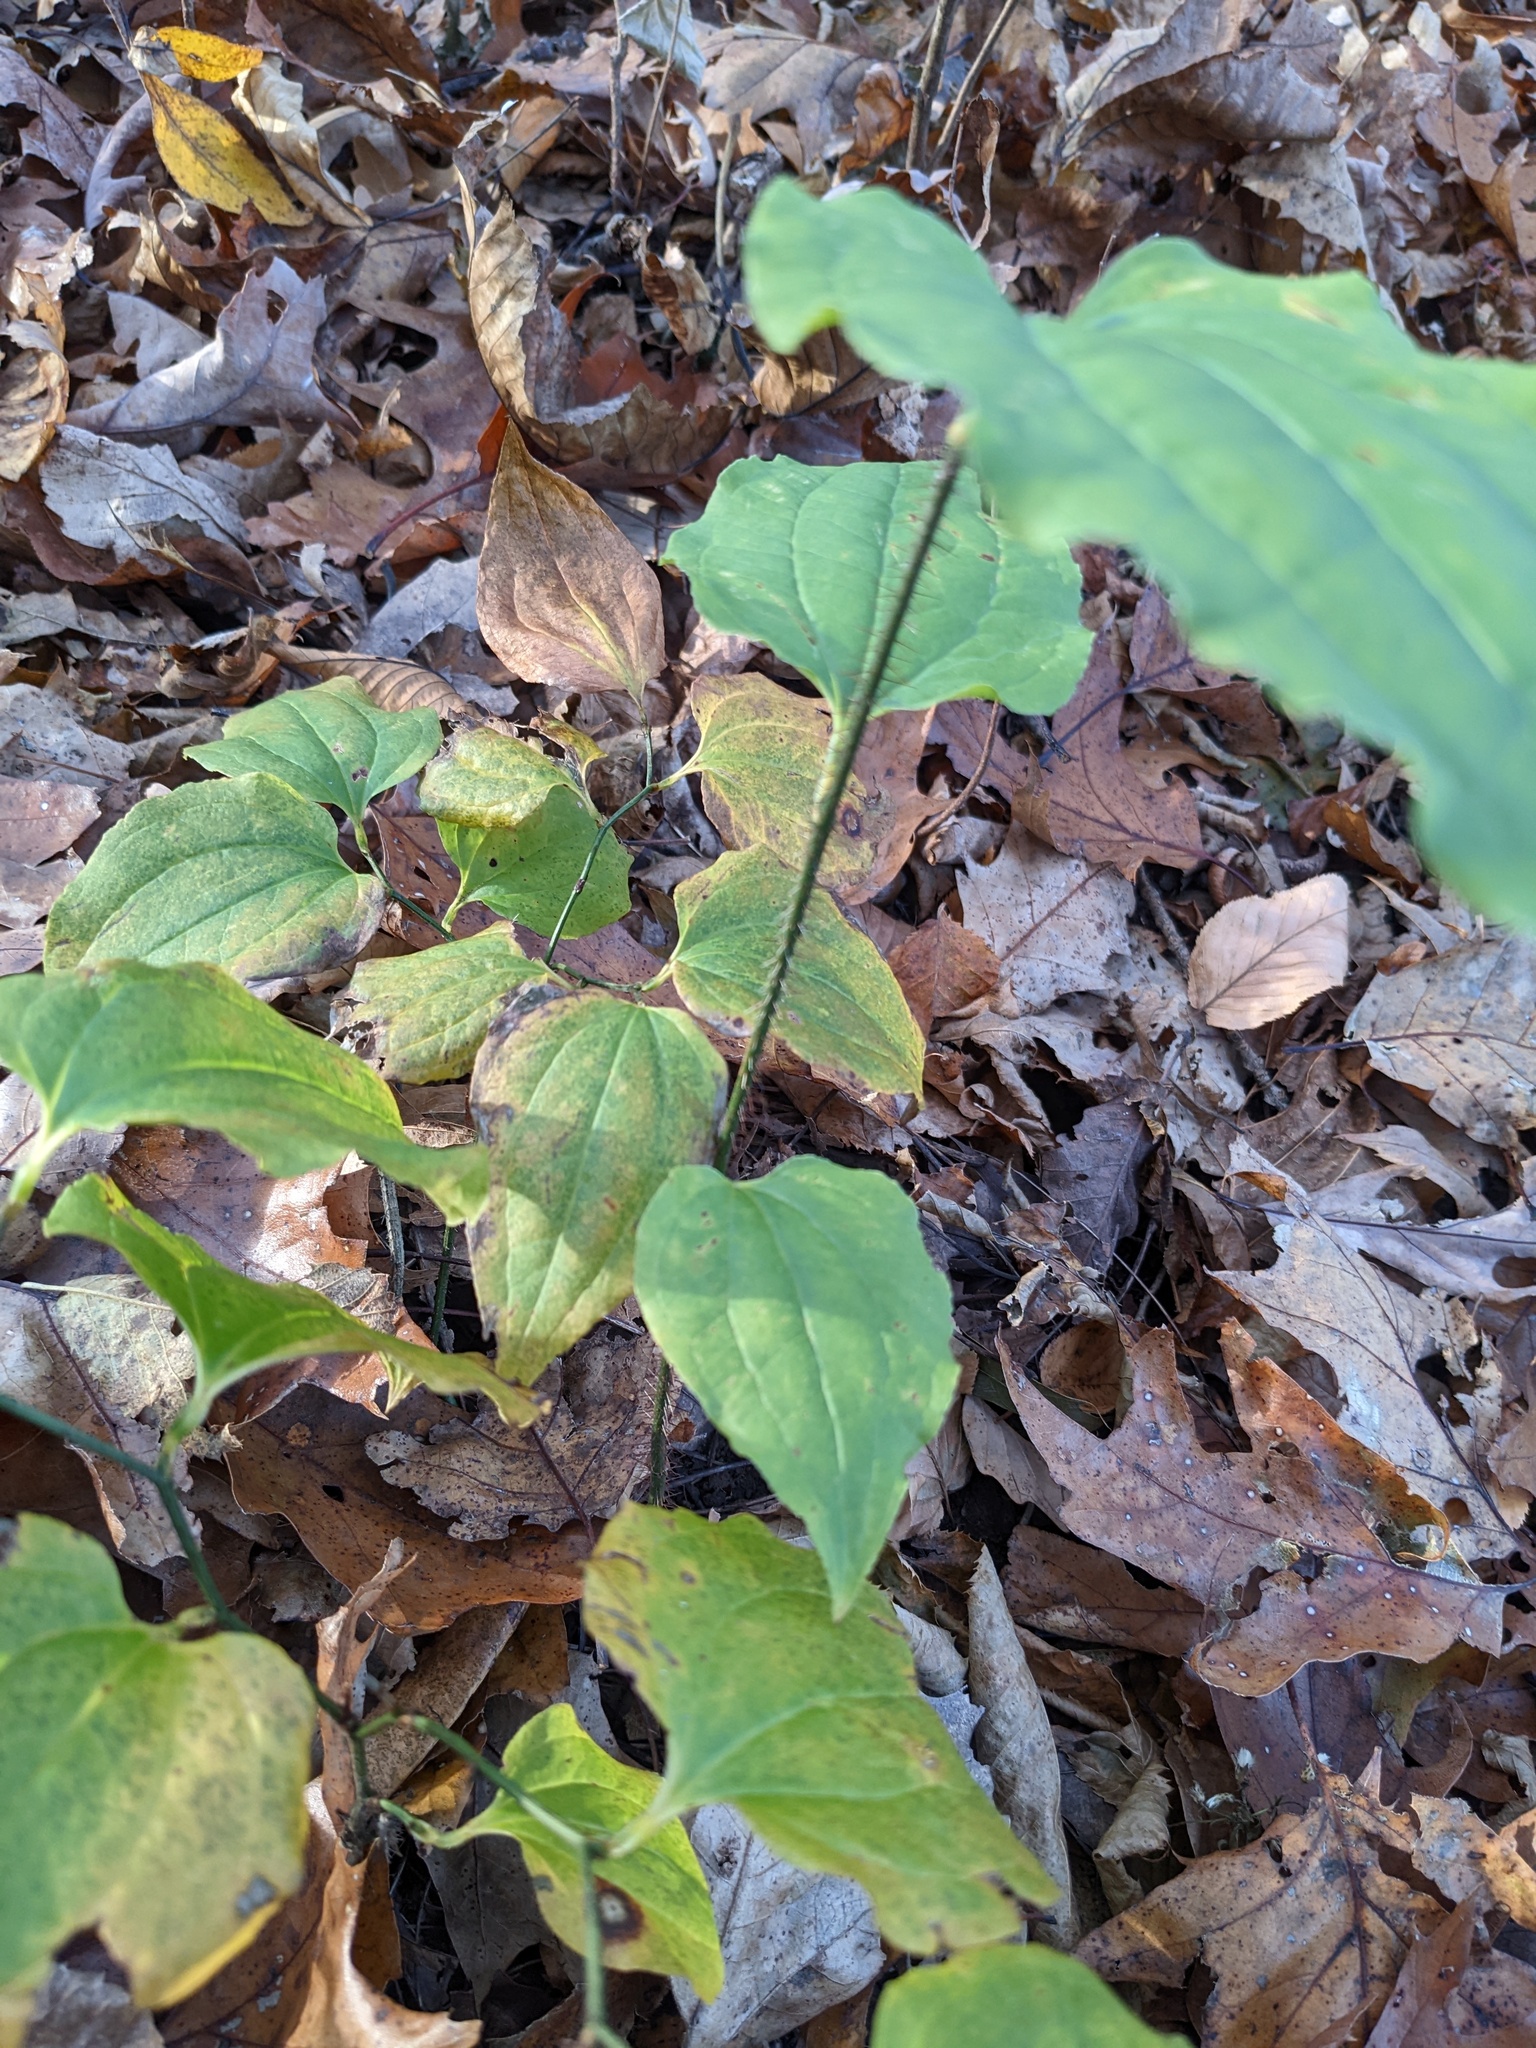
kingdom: Plantae
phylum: Tracheophyta
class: Liliopsida
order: Liliales
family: Smilacaceae
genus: Smilax
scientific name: Smilax tamnoides
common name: Hellfetter
